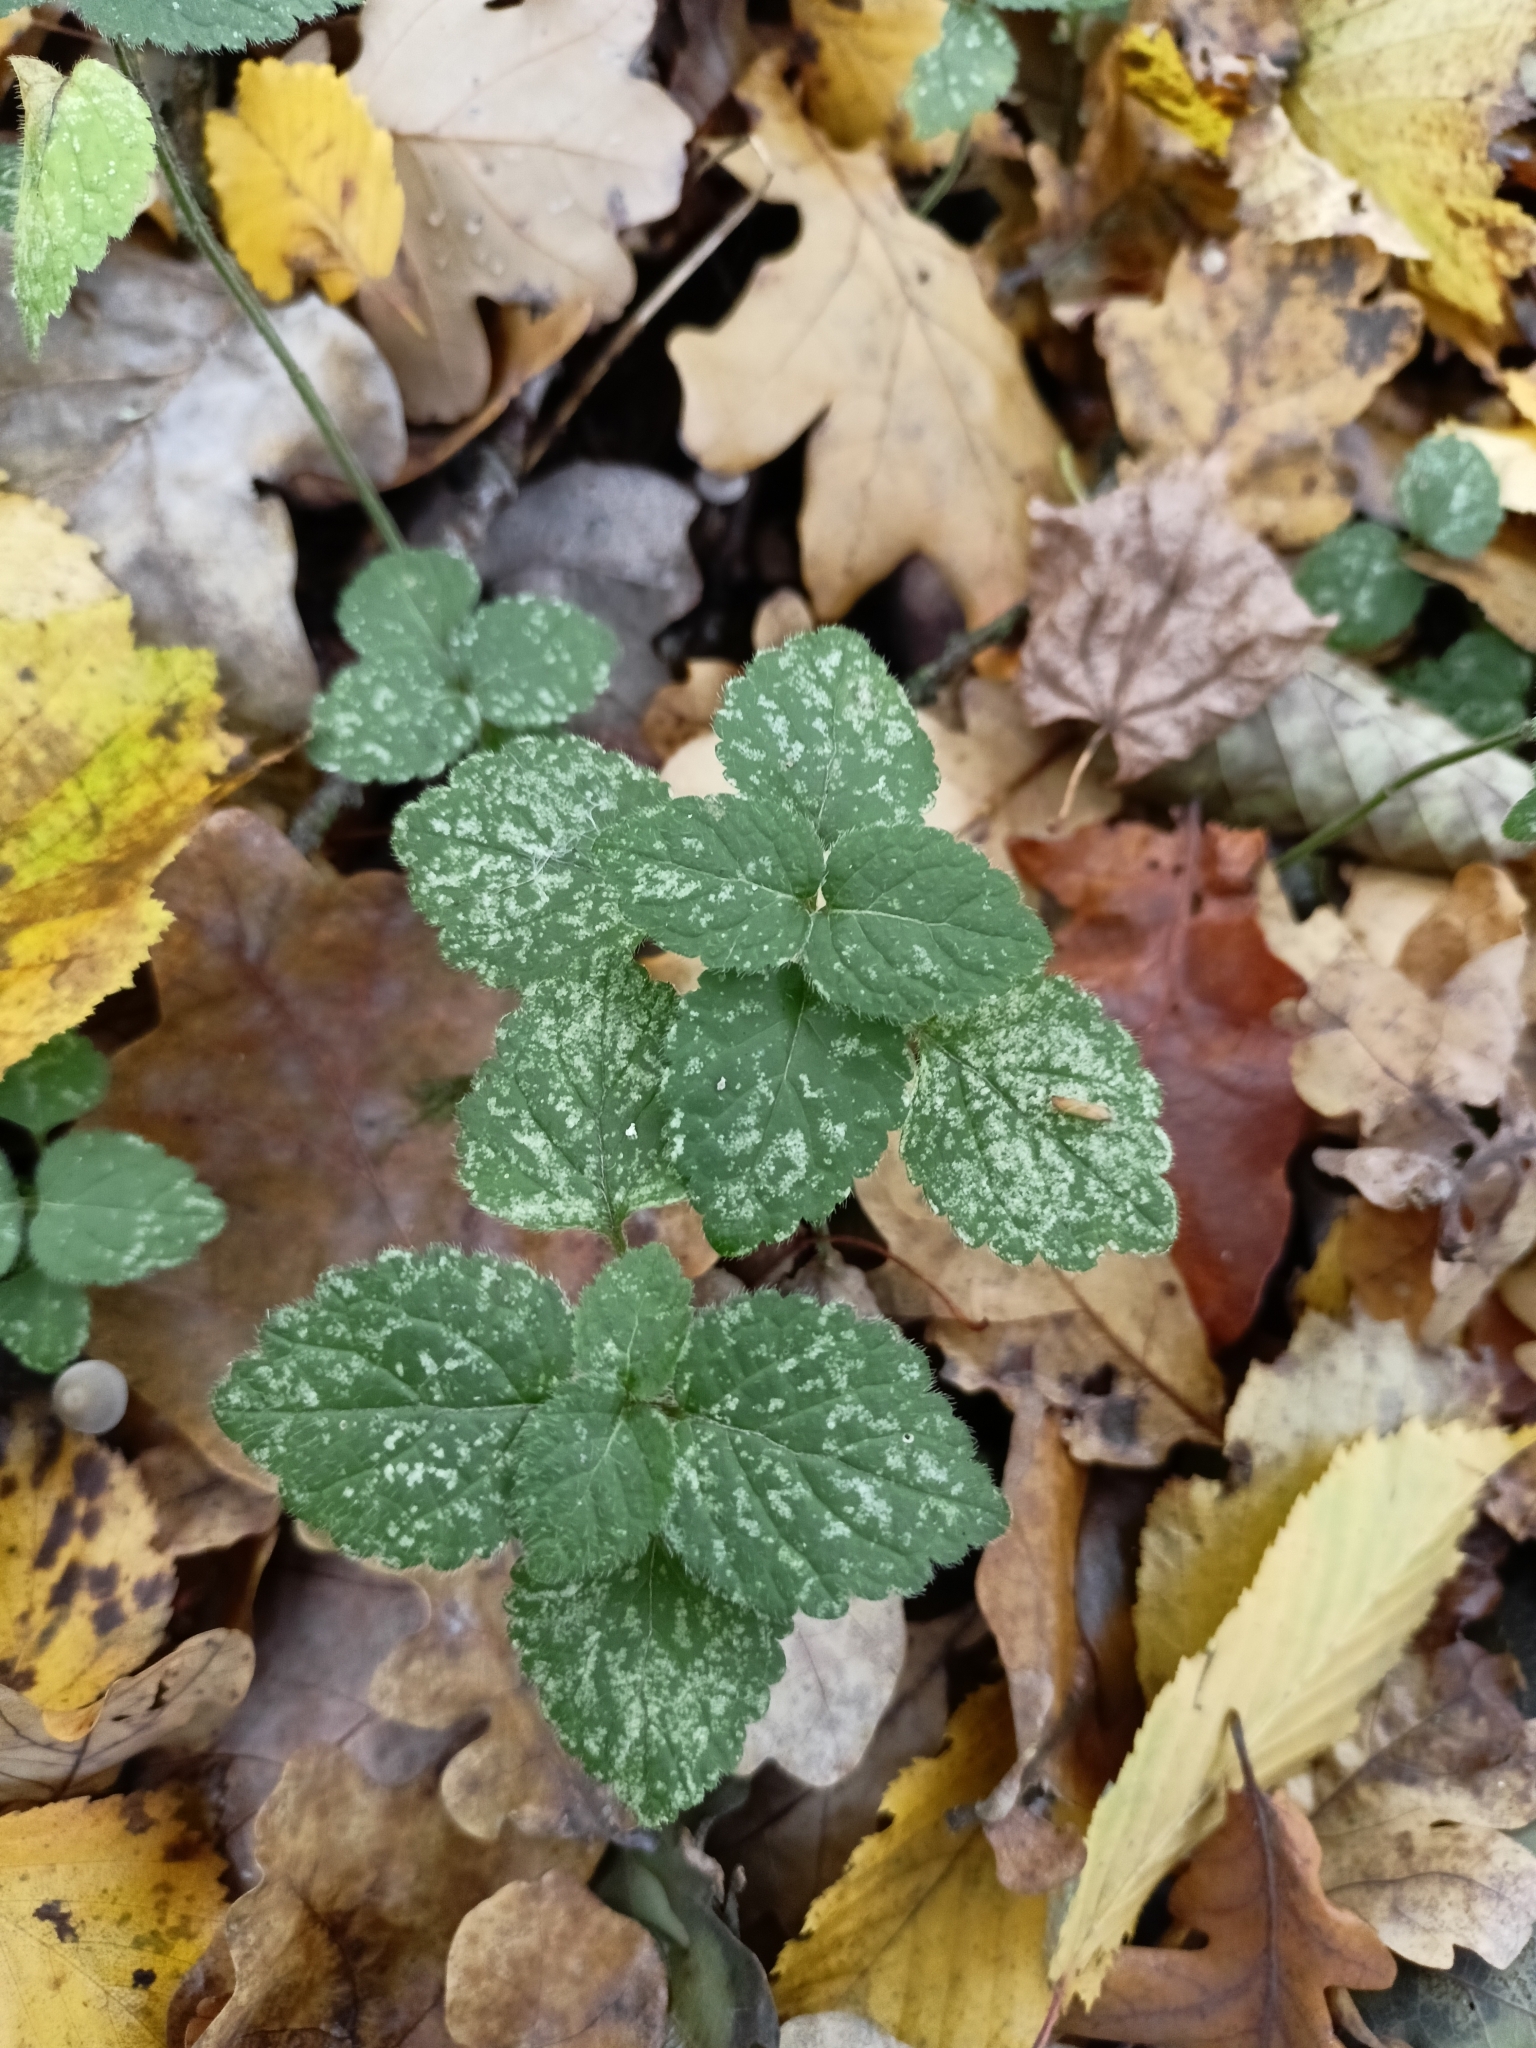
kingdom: Plantae
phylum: Tracheophyta
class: Magnoliopsida
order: Lamiales
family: Lamiaceae
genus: Lamium
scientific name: Lamium galeobdolon
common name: Yellow archangel
